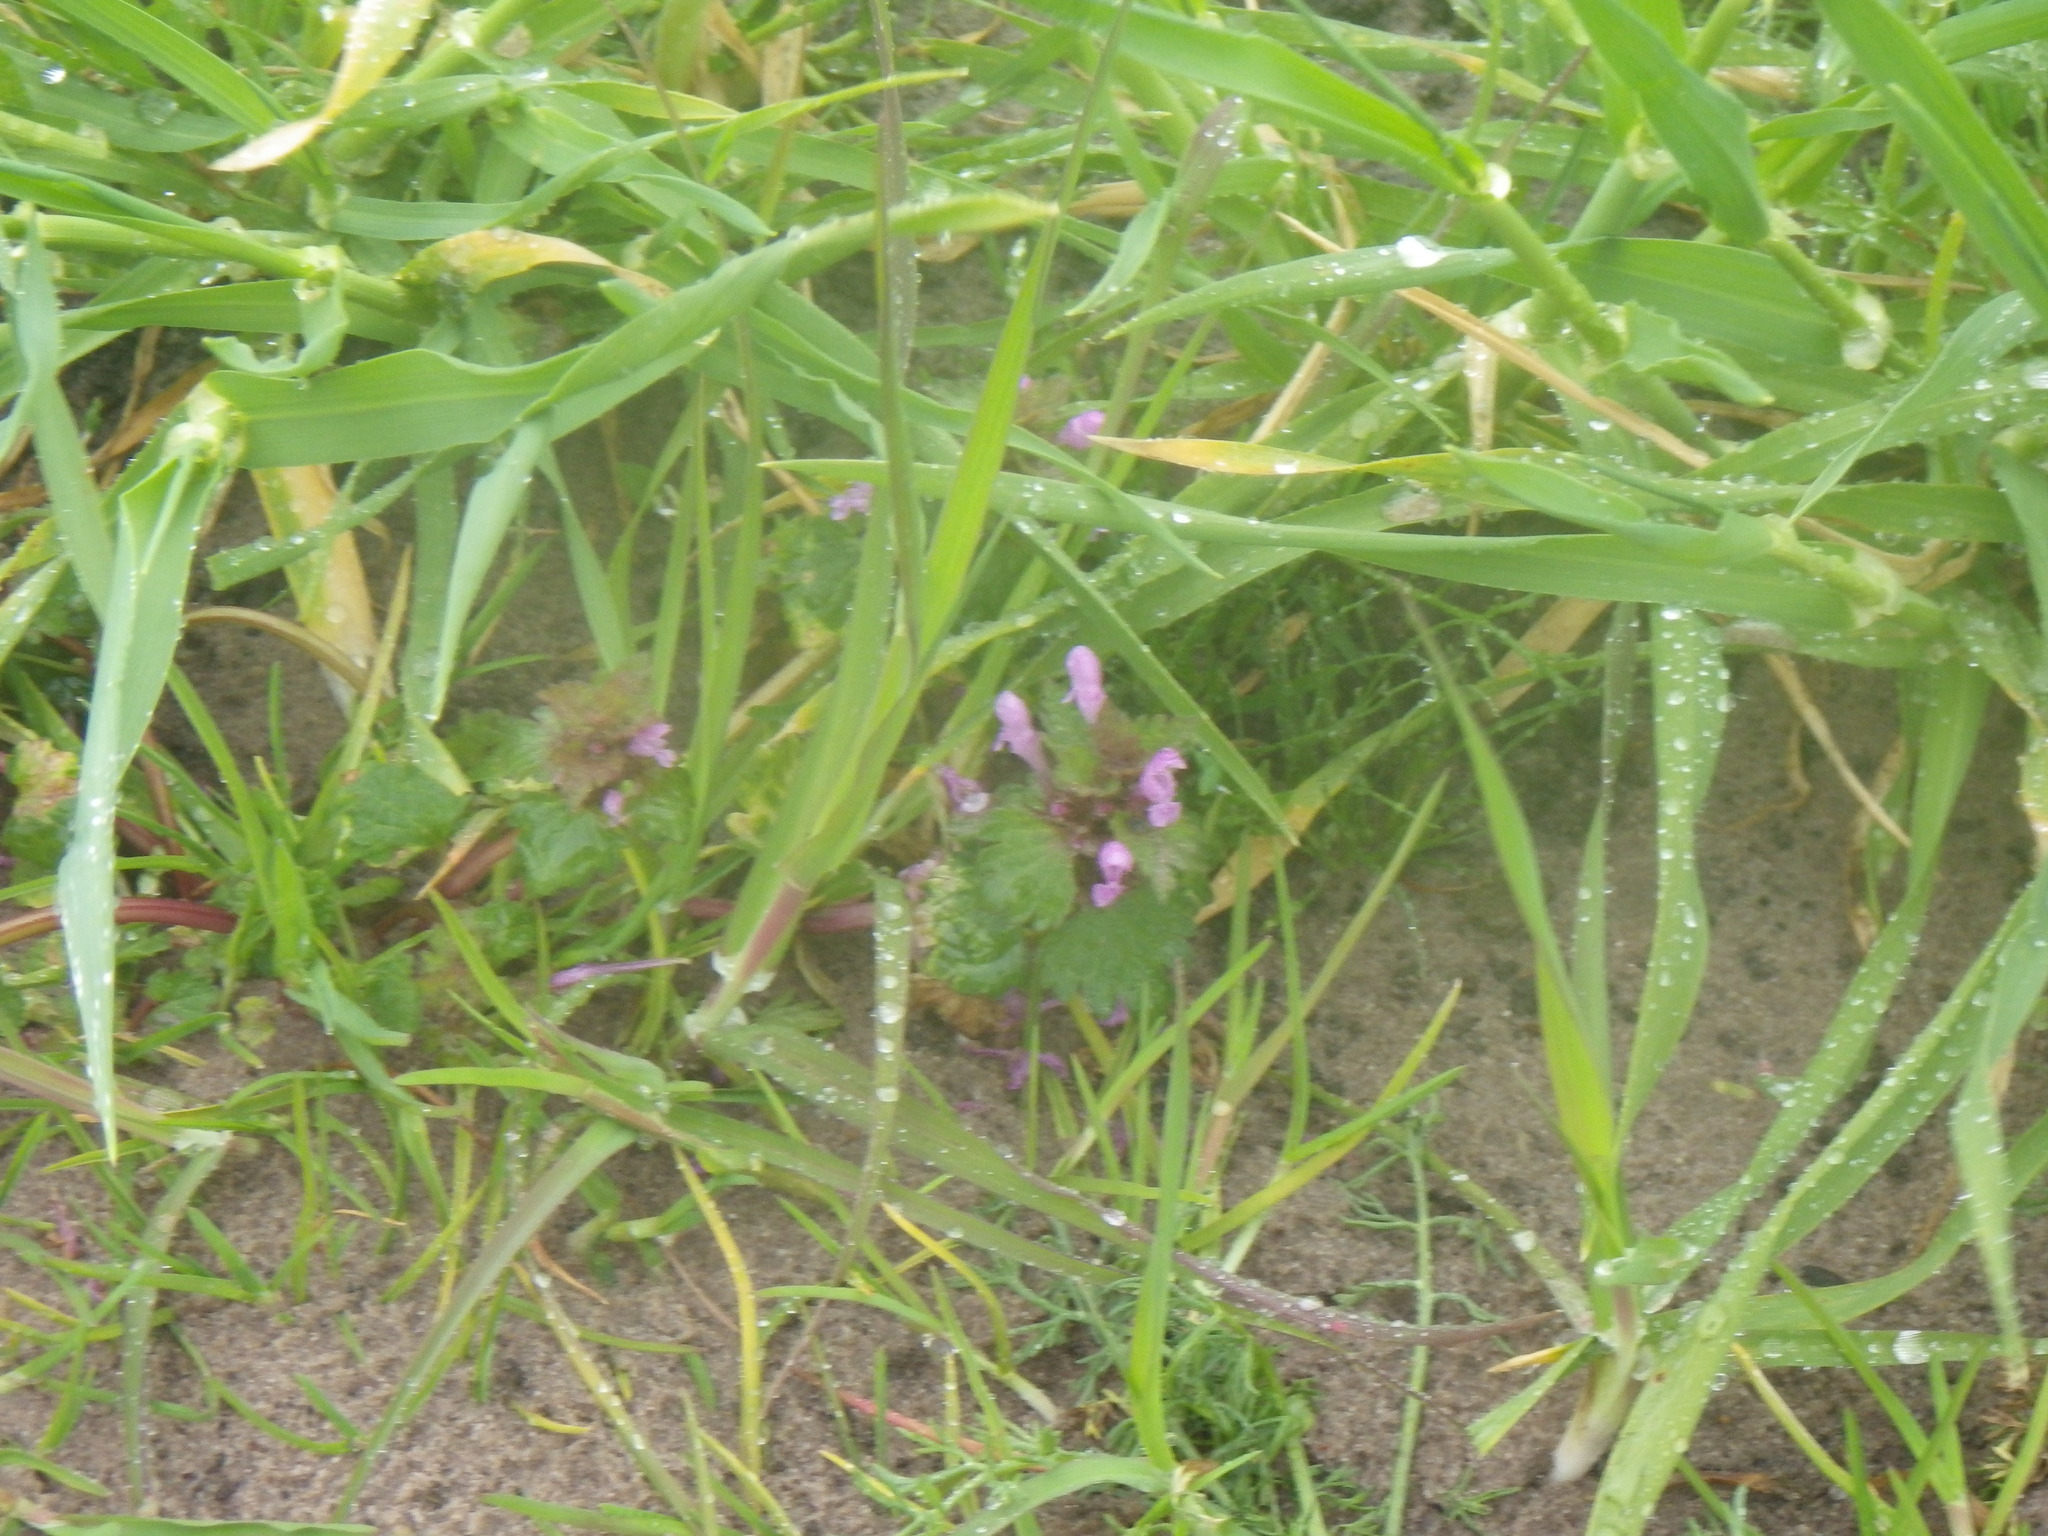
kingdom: Plantae
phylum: Tracheophyta
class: Magnoliopsida
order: Lamiales
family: Lamiaceae
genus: Lamium
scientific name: Lamium purpureum
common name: Red dead-nettle
